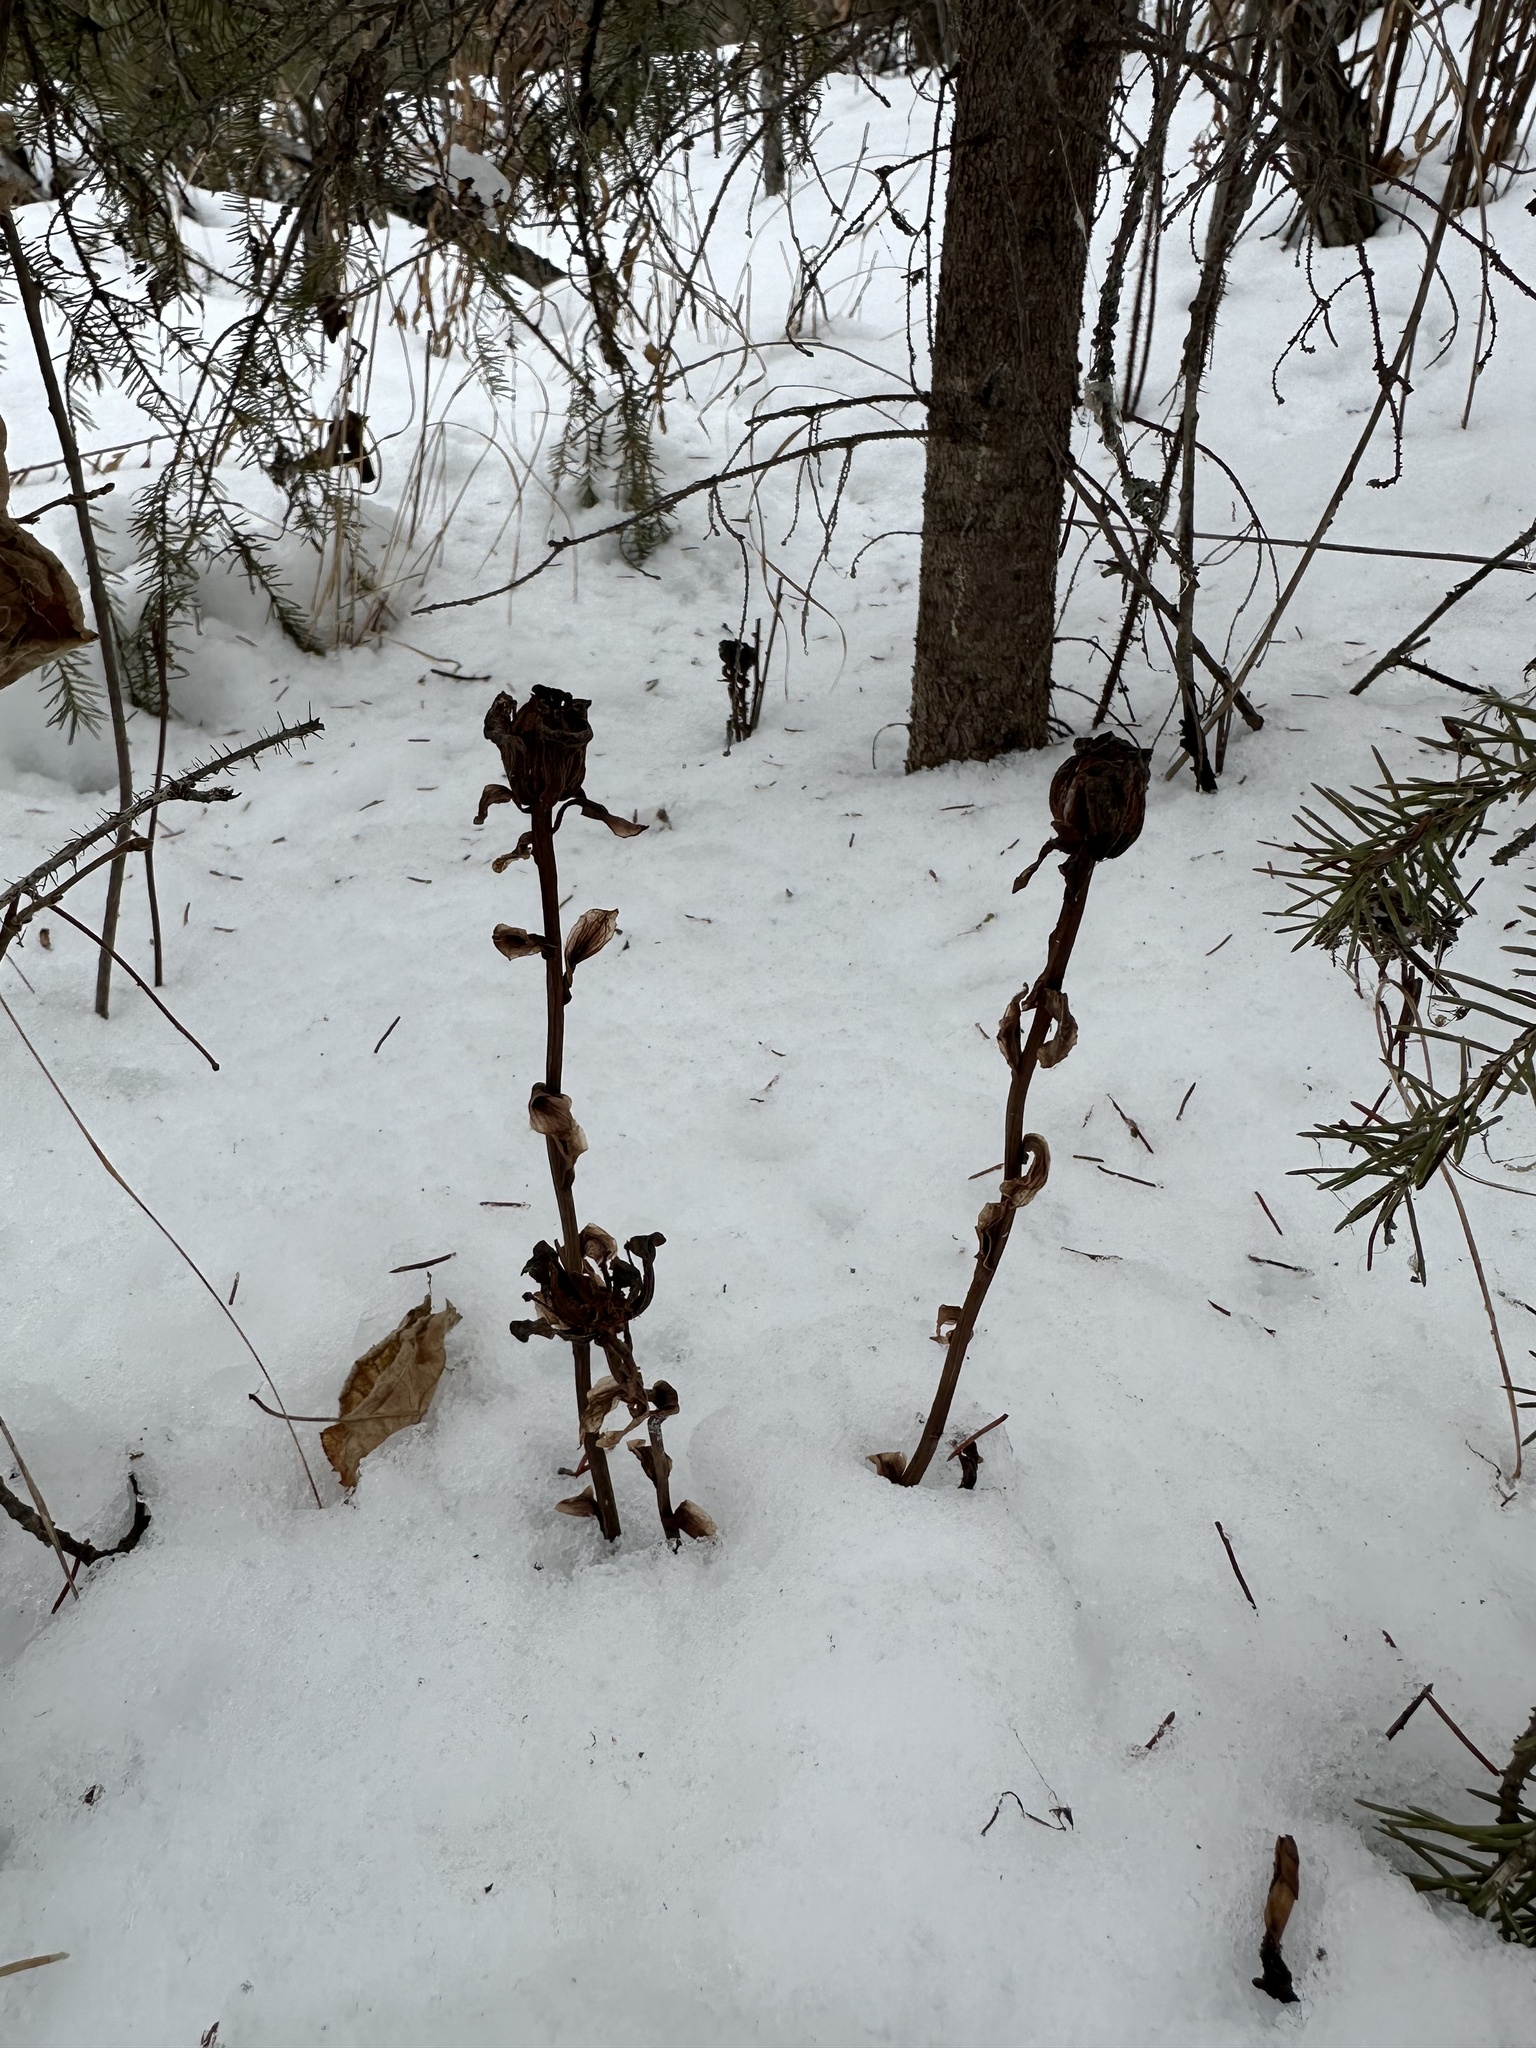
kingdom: Plantae
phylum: Tracheophyta
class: Magnoliopsida
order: Ericales
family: Ericaceae
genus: Monotropa
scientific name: Monotropa uniflora
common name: Convulsion root
